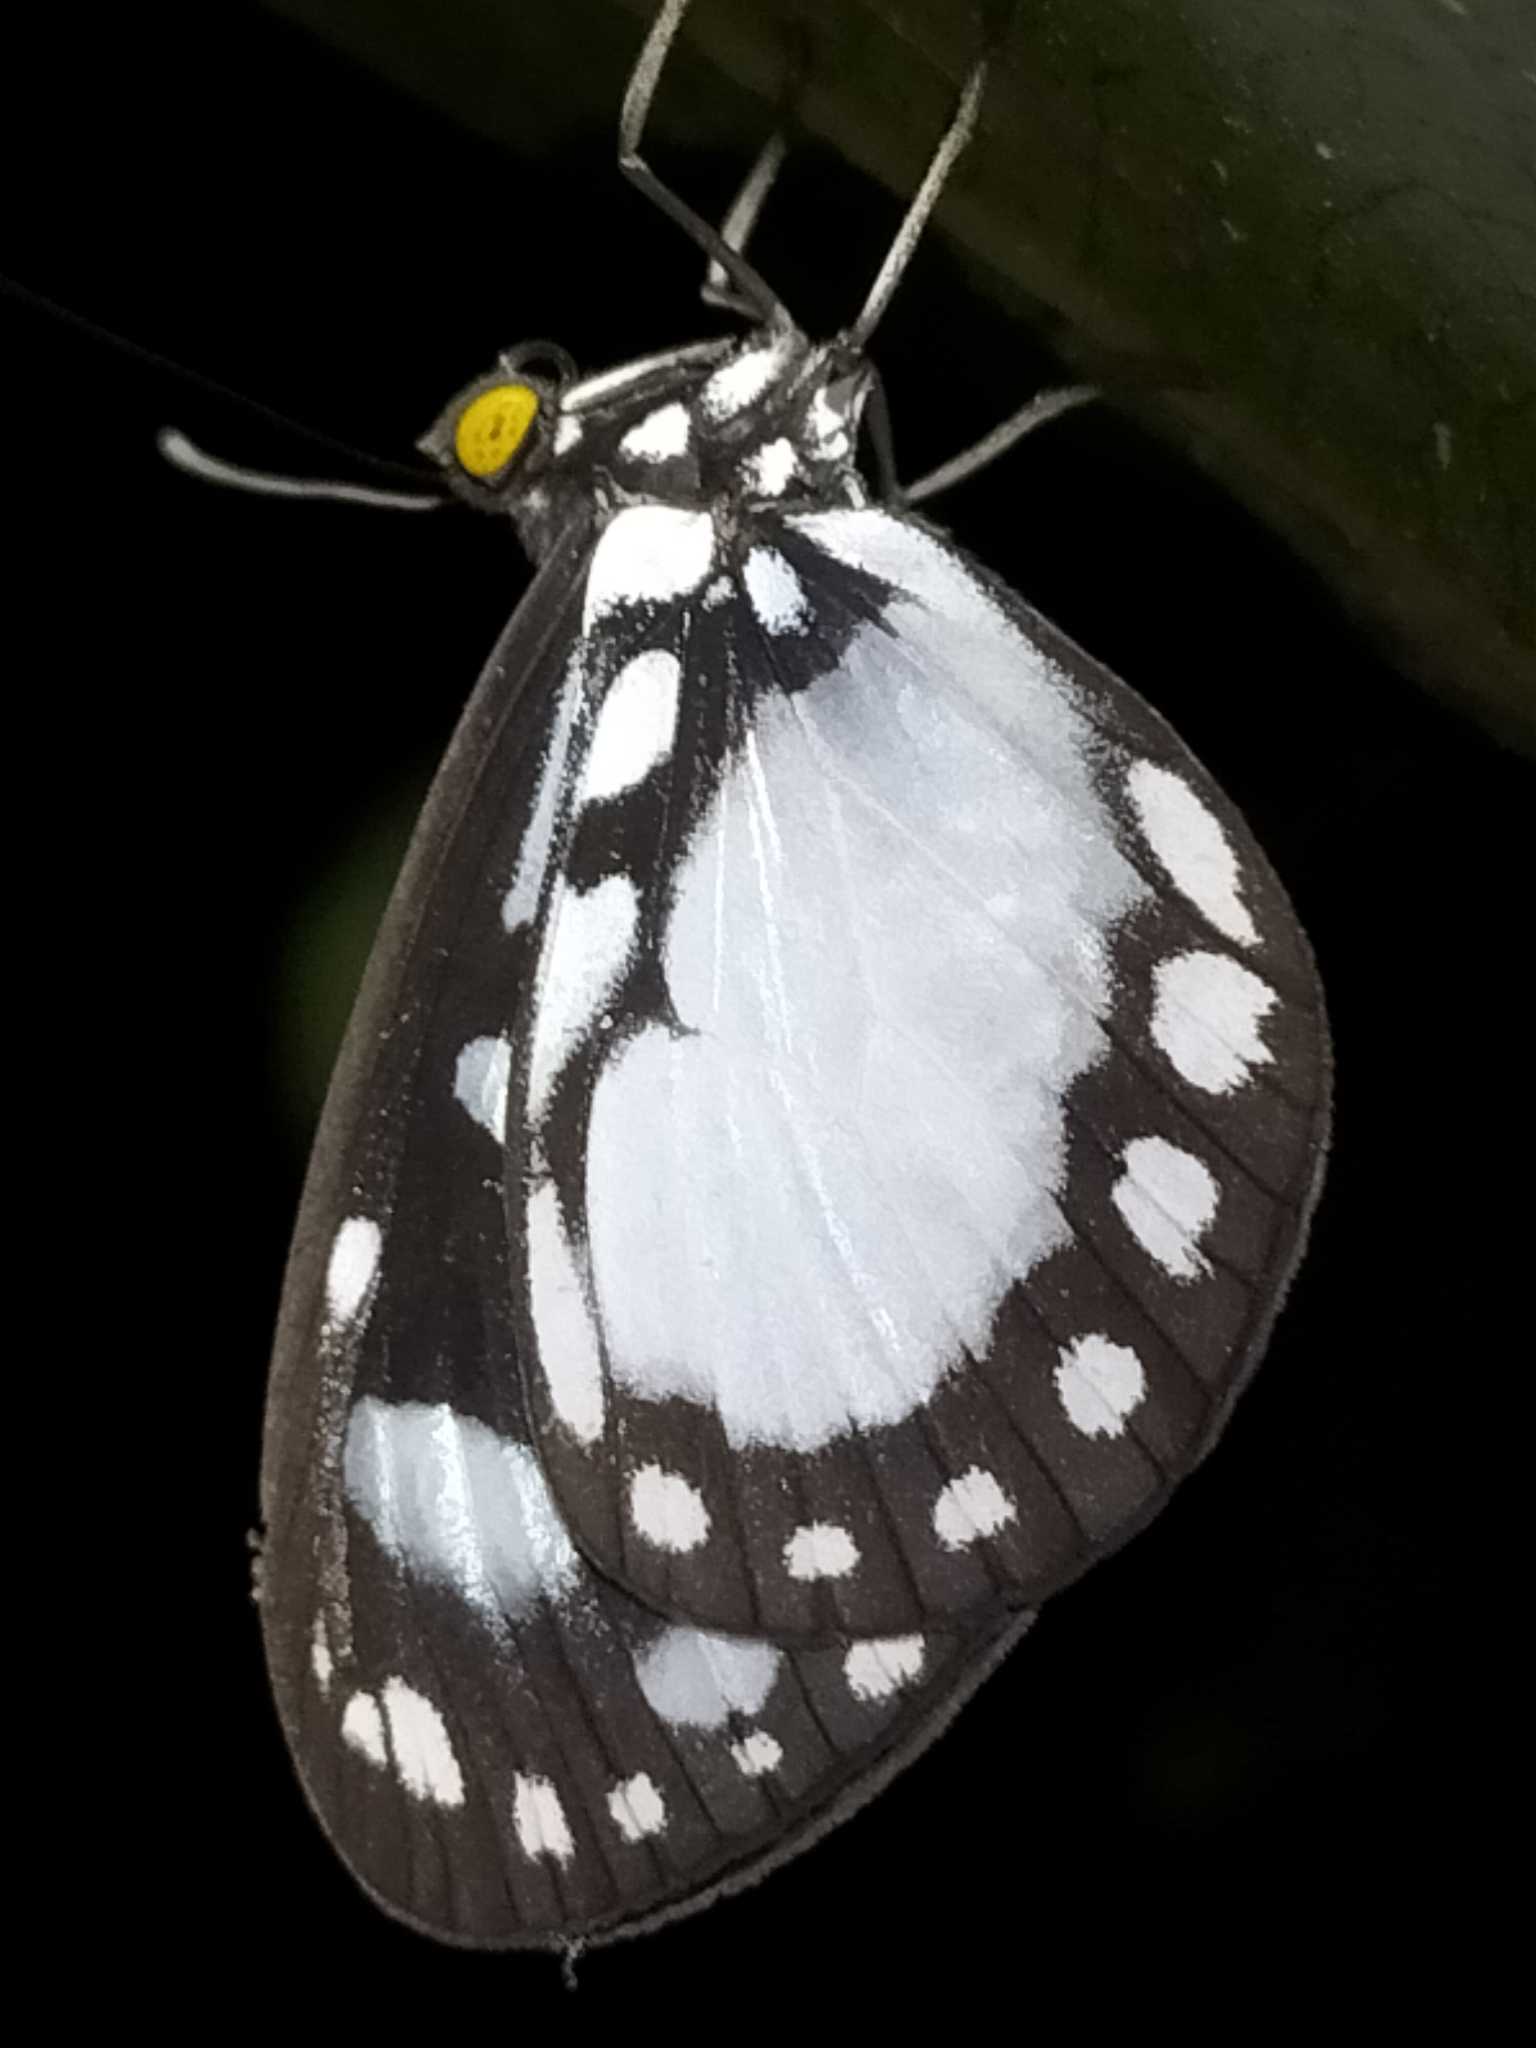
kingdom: Animalia
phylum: Arthropoda
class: Insecta
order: Lepidoptera
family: Nymphalidae
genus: Tellervo
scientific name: Tellervo zoilus
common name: Hamadryad
